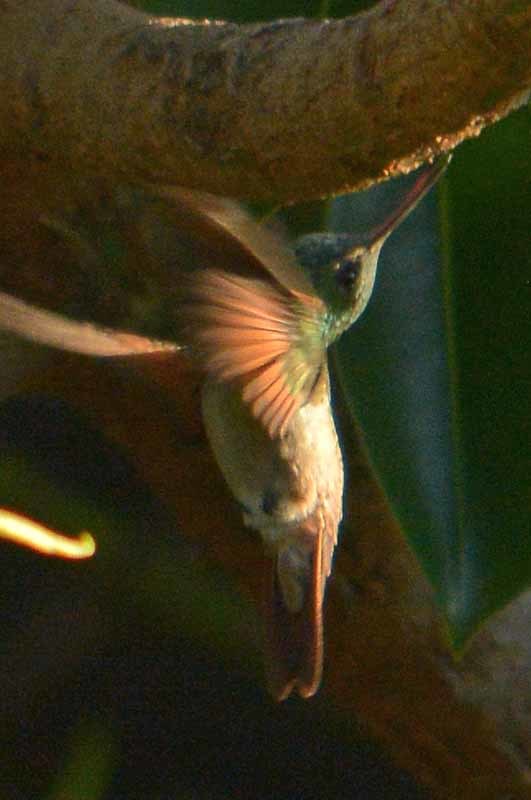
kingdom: Animalia
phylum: Chordata
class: Aves
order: Apodiformes
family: Trochilidae
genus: Saucerottia
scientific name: Saucerottia beryllina
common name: Berylline hummingbird
